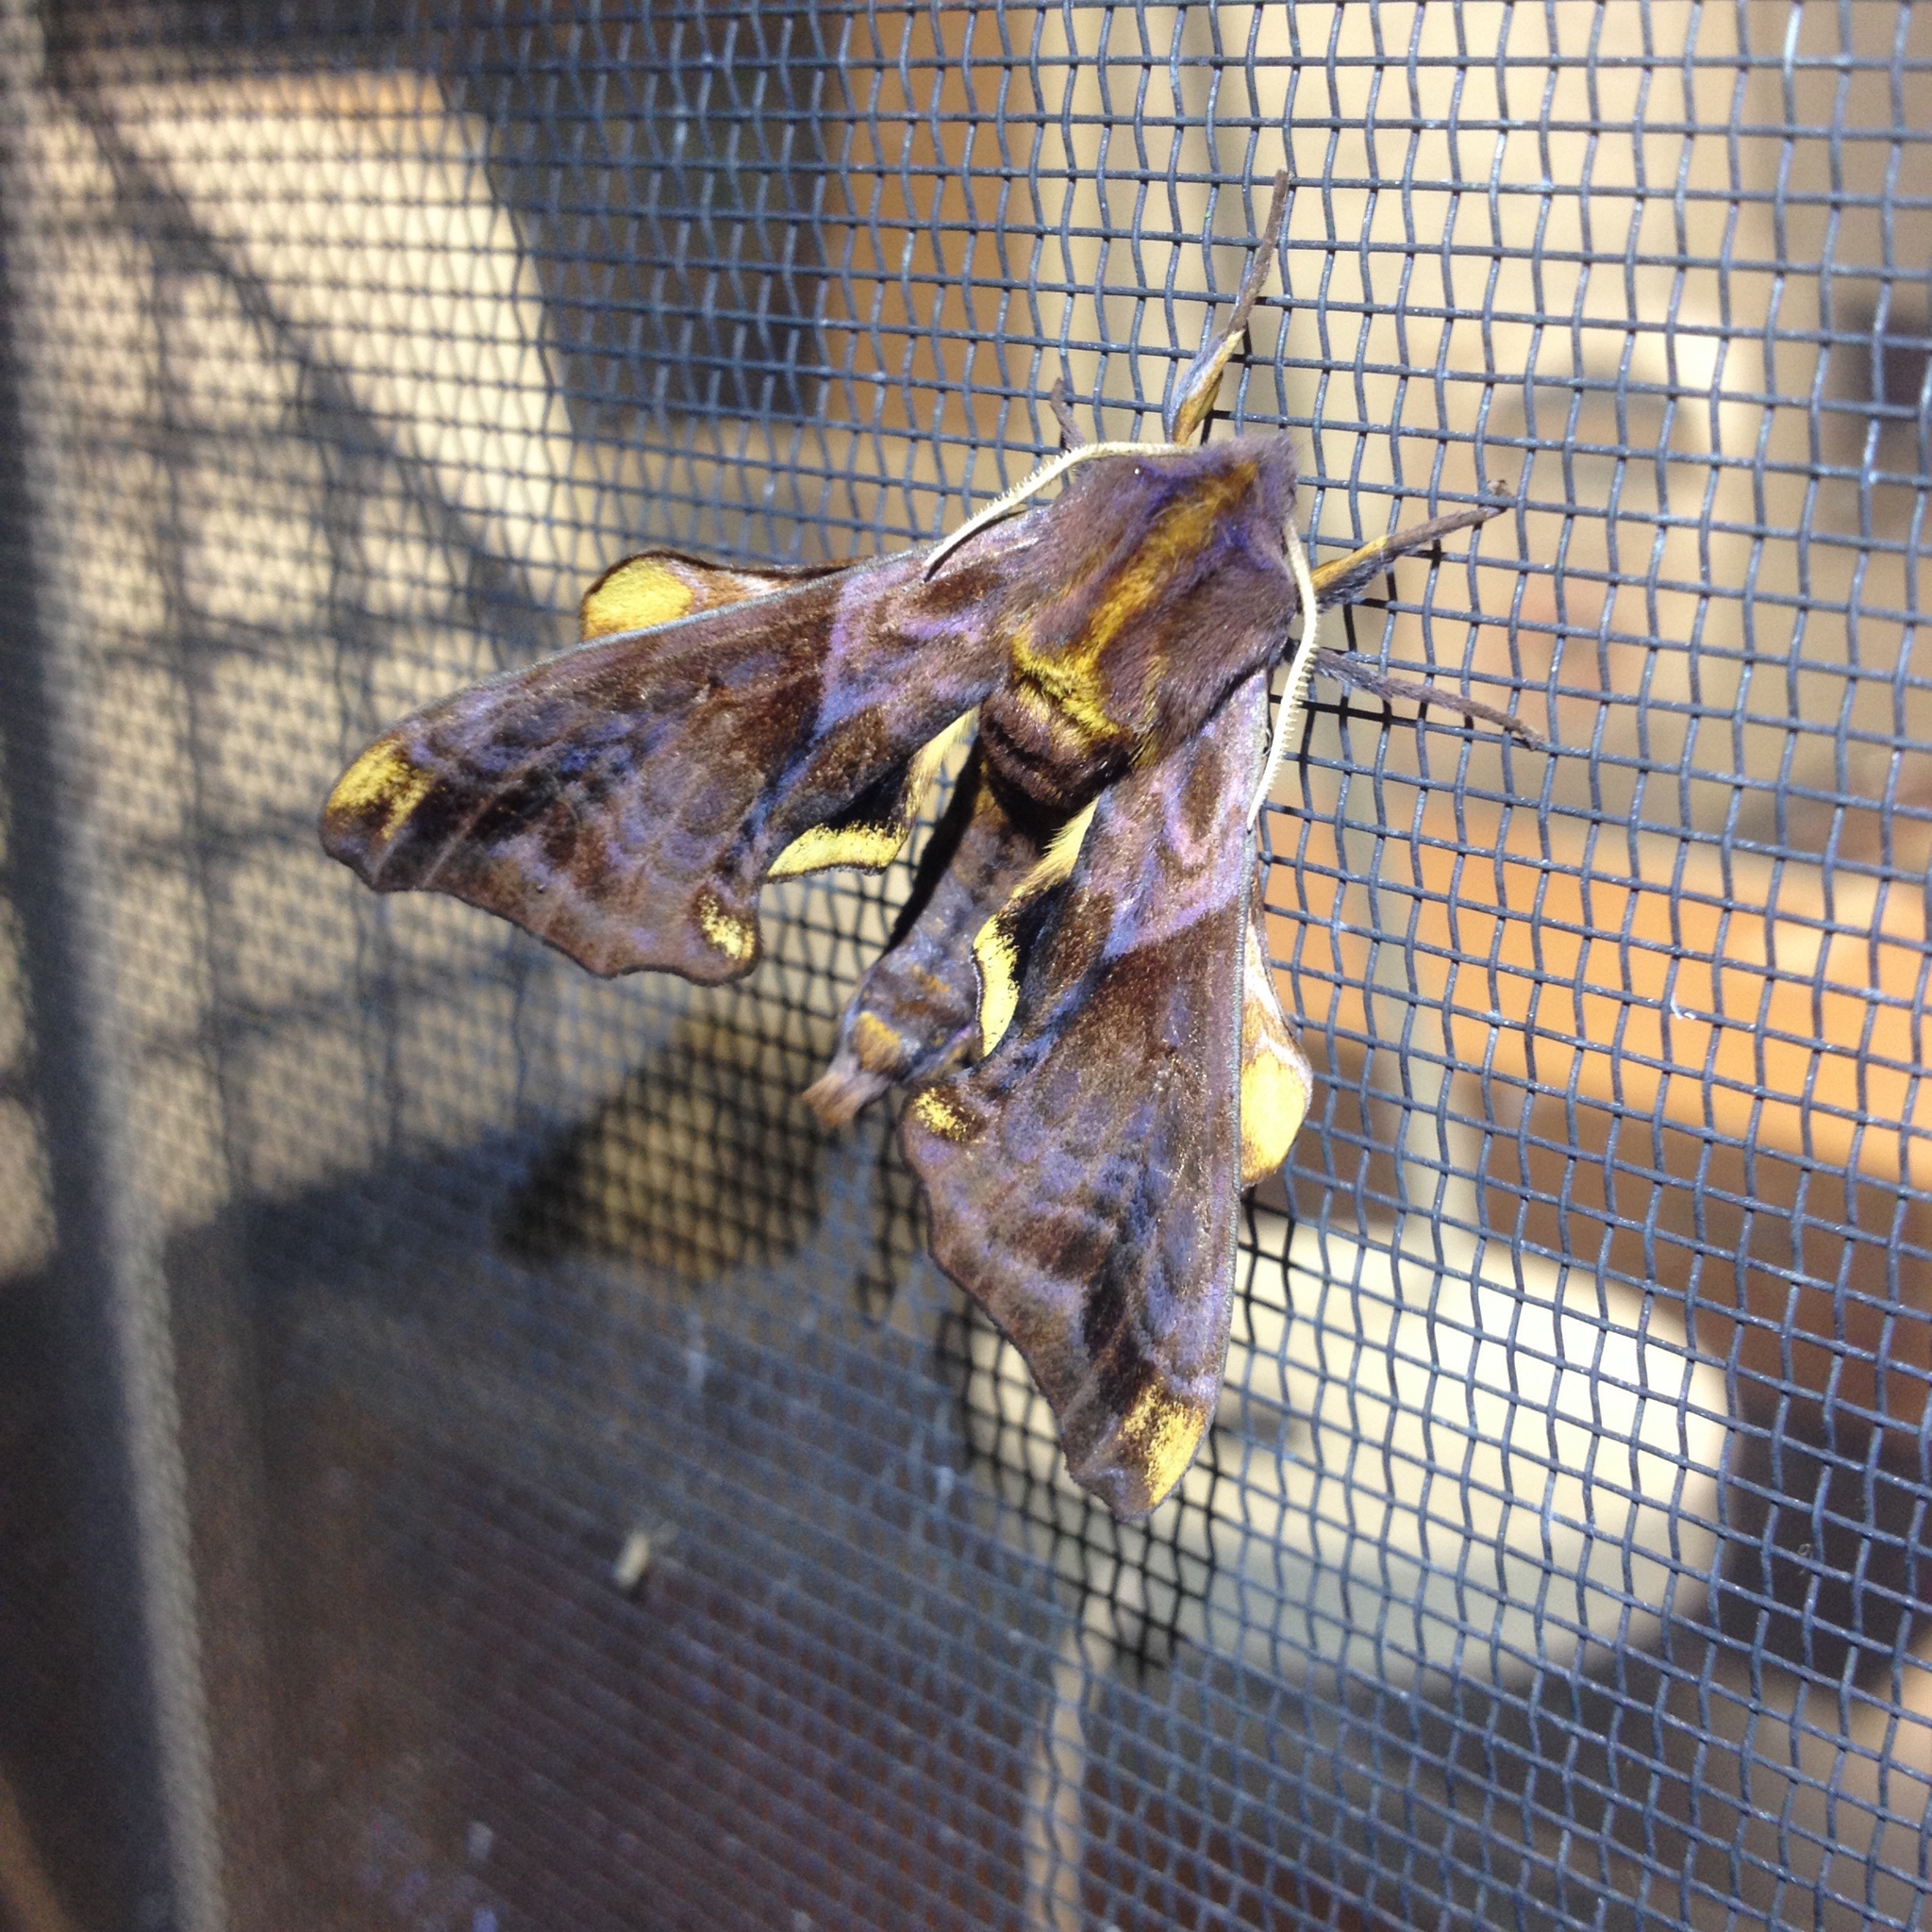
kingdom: Animalia
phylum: Arthropoda
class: Insecta
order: Lepidoptera
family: Sphingidae
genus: Paonias
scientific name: Paonias myops
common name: Small-eyed sphinx
